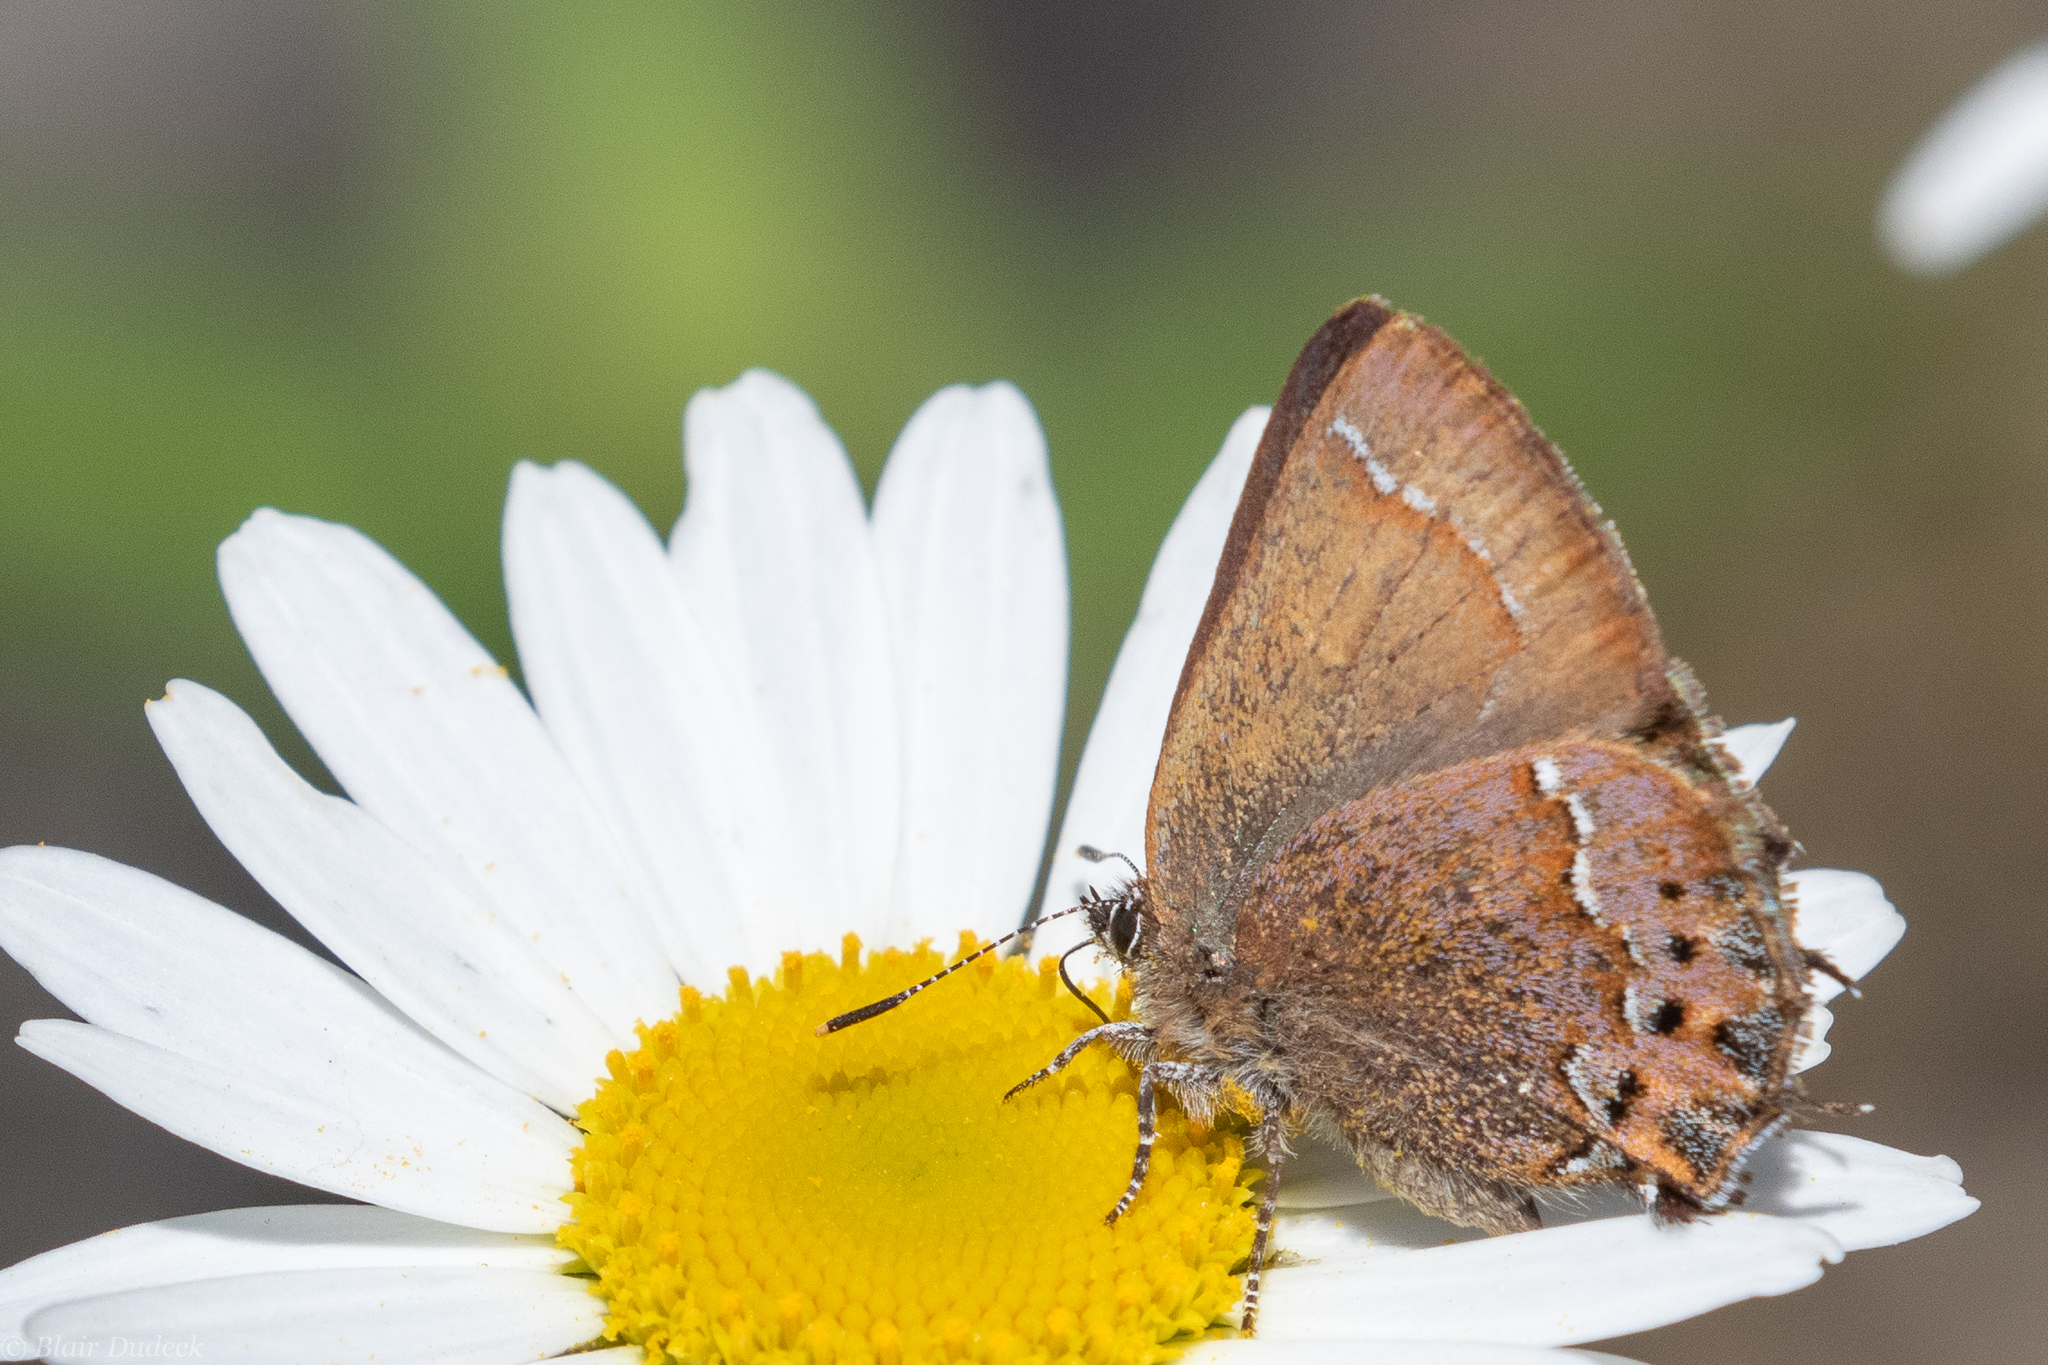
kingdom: Animalia
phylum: Arthropoda
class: Insecta
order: Lepidoptera
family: Lycaenidae
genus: Mitoura
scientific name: Mitoura gryneus
